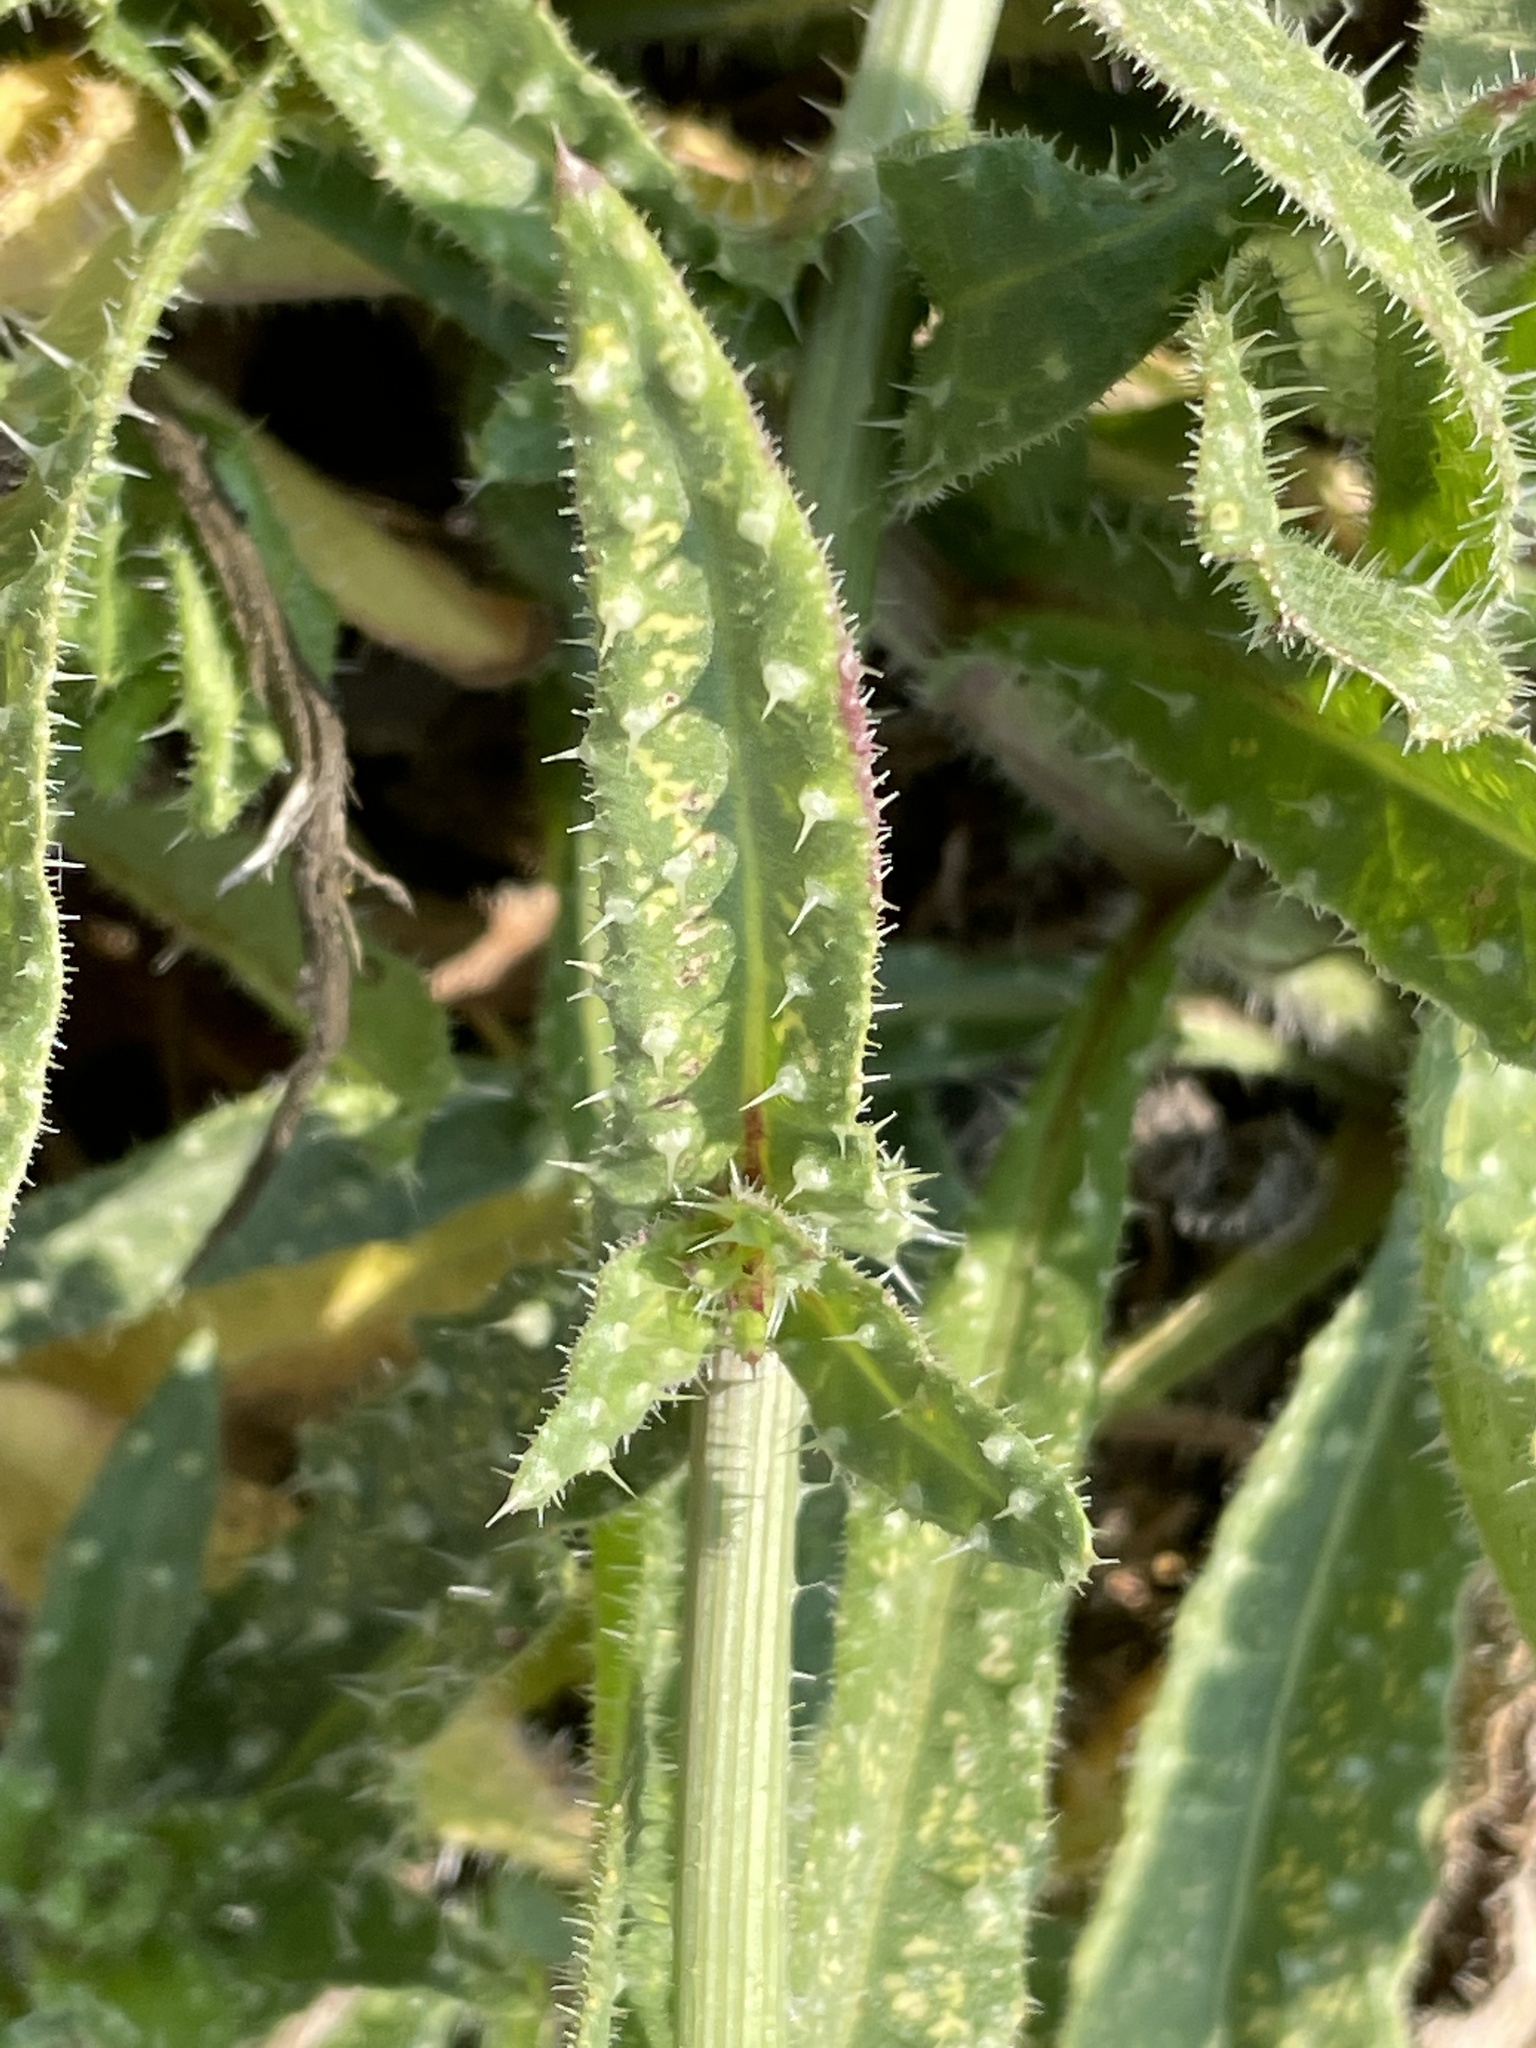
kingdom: Plantae
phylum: Tracheophyta
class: Magnoliopsida
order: Asterales
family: Asteraceae
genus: Helminthotheca
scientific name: Helminthotheca echioides
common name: Ox-tongue
